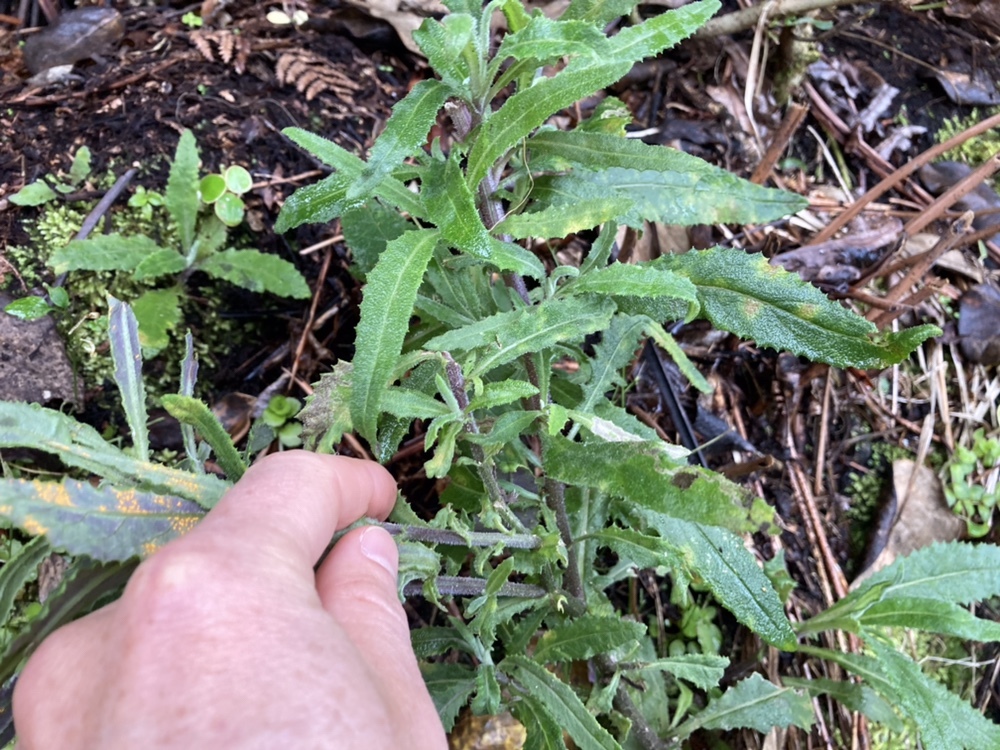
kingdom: Plantae
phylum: Tracheophyta
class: Magnoliopsida
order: Asterales
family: Asteraceae
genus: Senecio
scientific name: Senecio minimus
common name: Toothed fireweed
